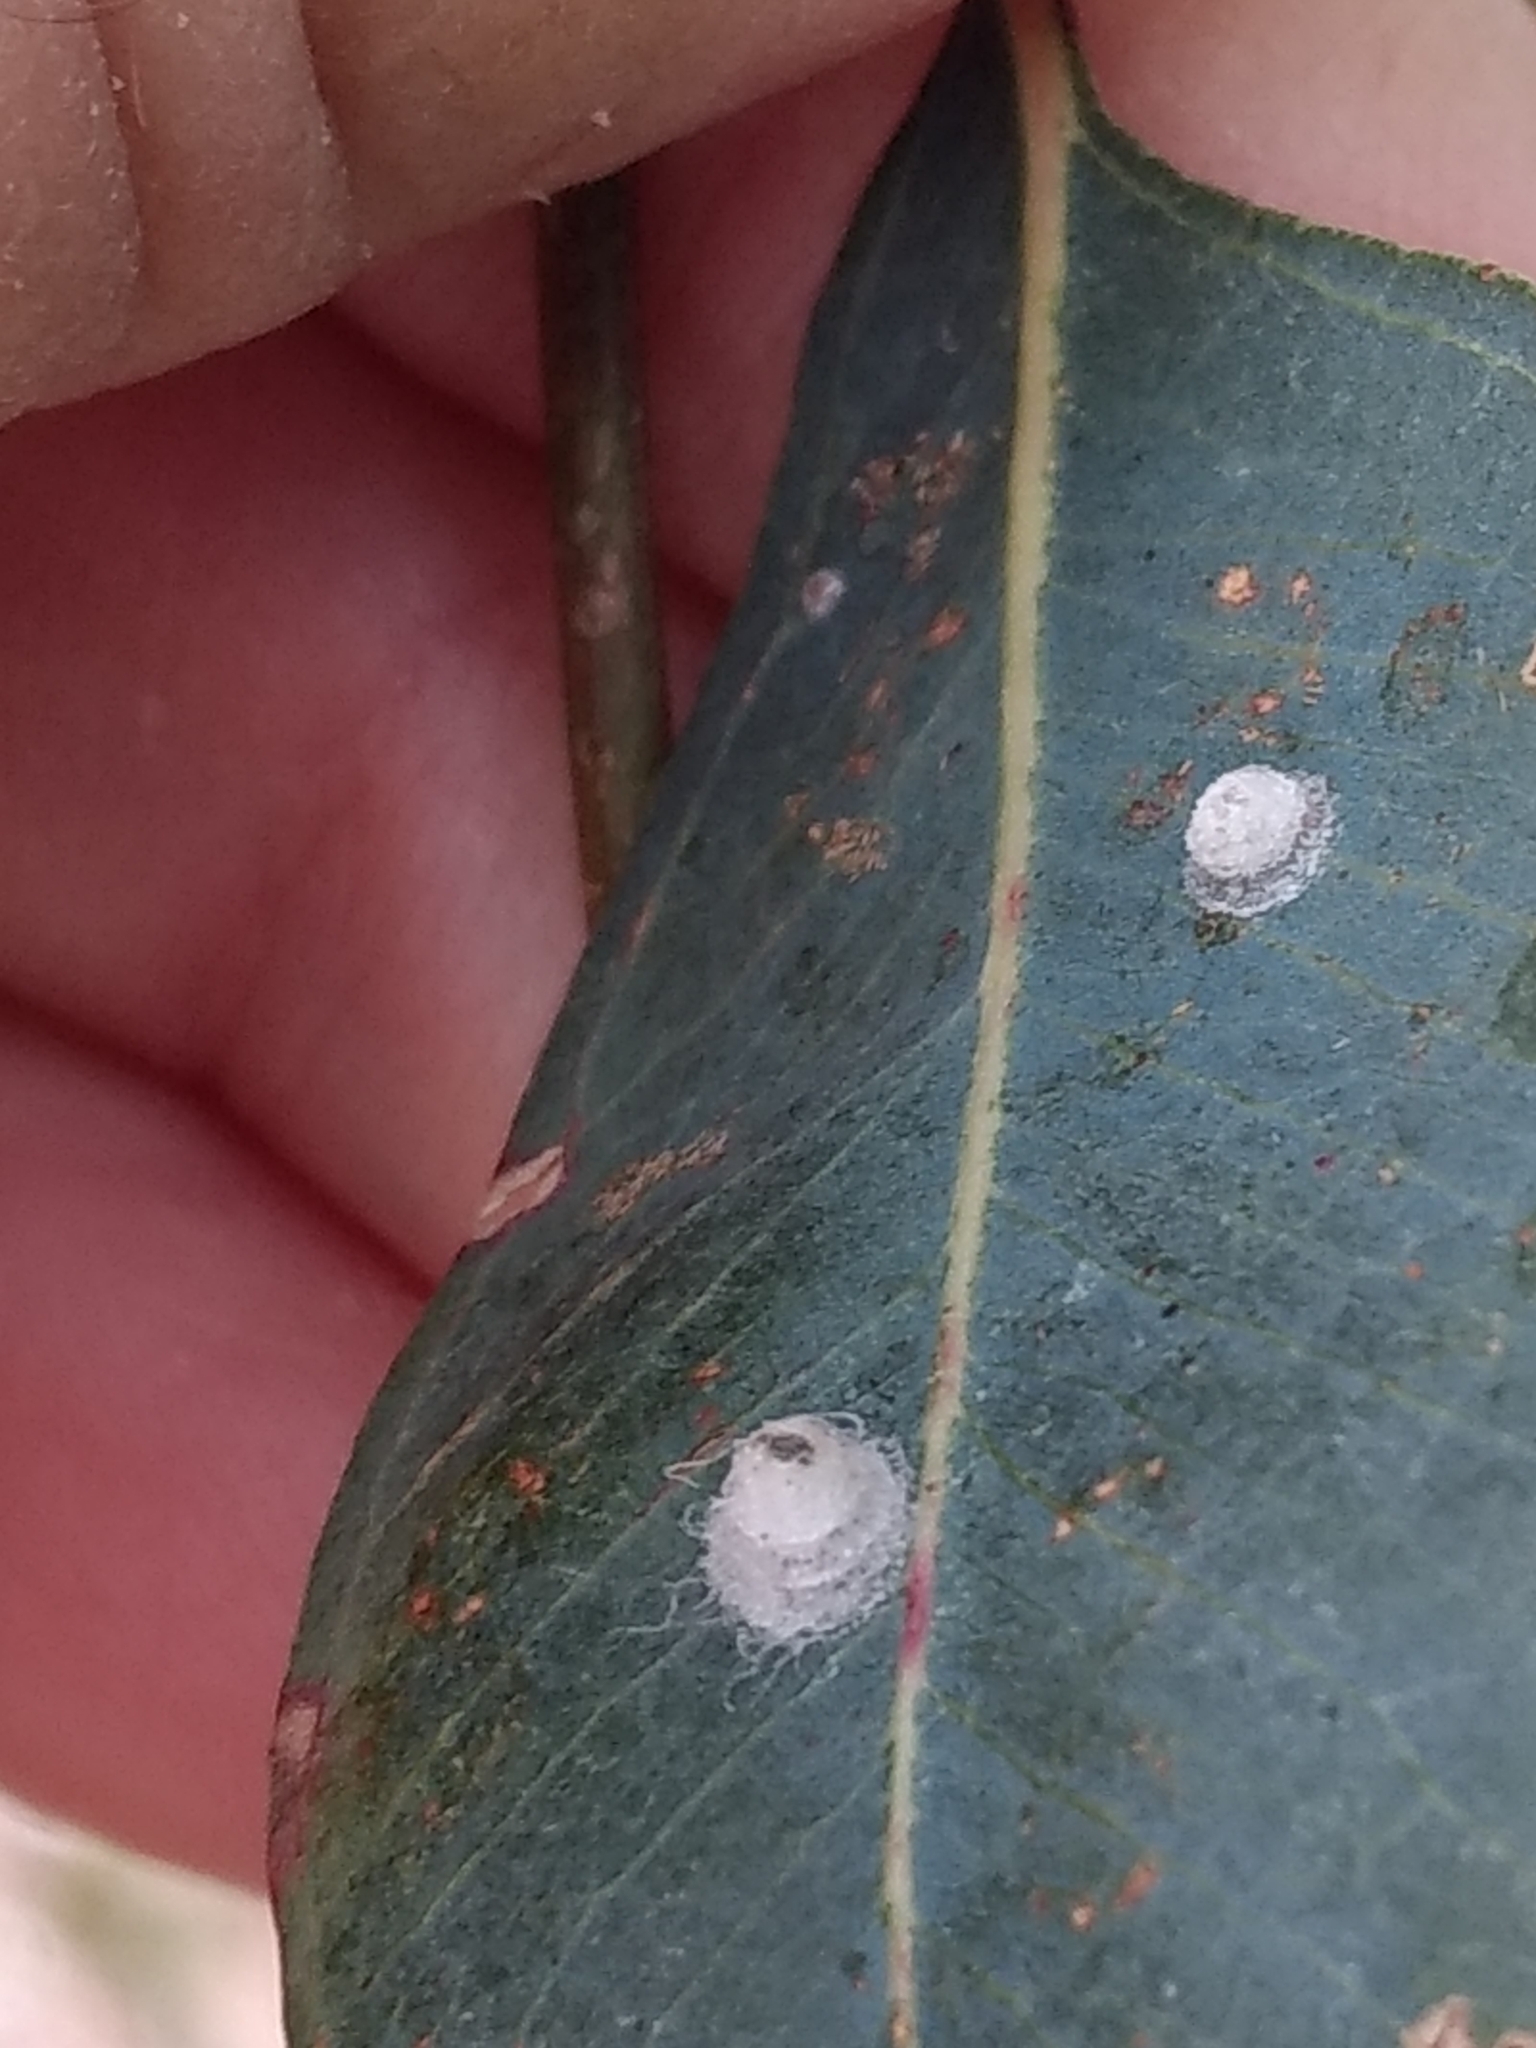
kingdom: Animalia
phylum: Arthropoda
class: Insecta
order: Hemiptera
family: Aphalaridae
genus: Glycaspis
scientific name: Glycaspis brimblecombei
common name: Red gum lerp psyllid
